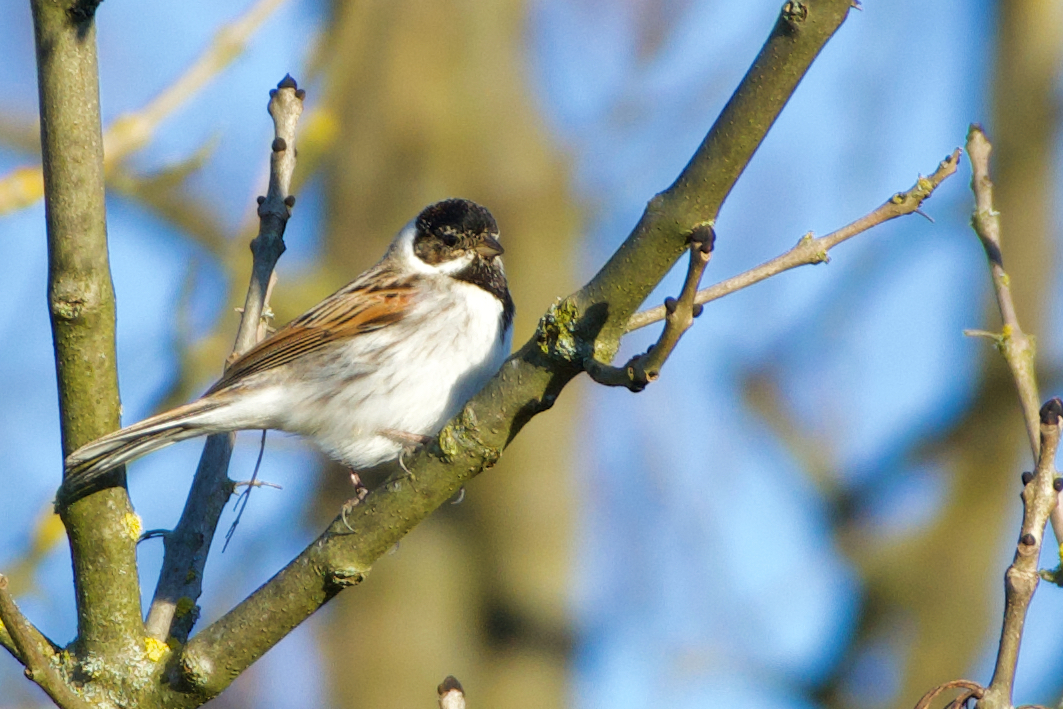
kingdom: Animalia
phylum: Chordata
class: Aves
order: Passeriformes
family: Emberizidae
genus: Emberiza
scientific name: Emberiza schoeniclus
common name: Reed bunting
